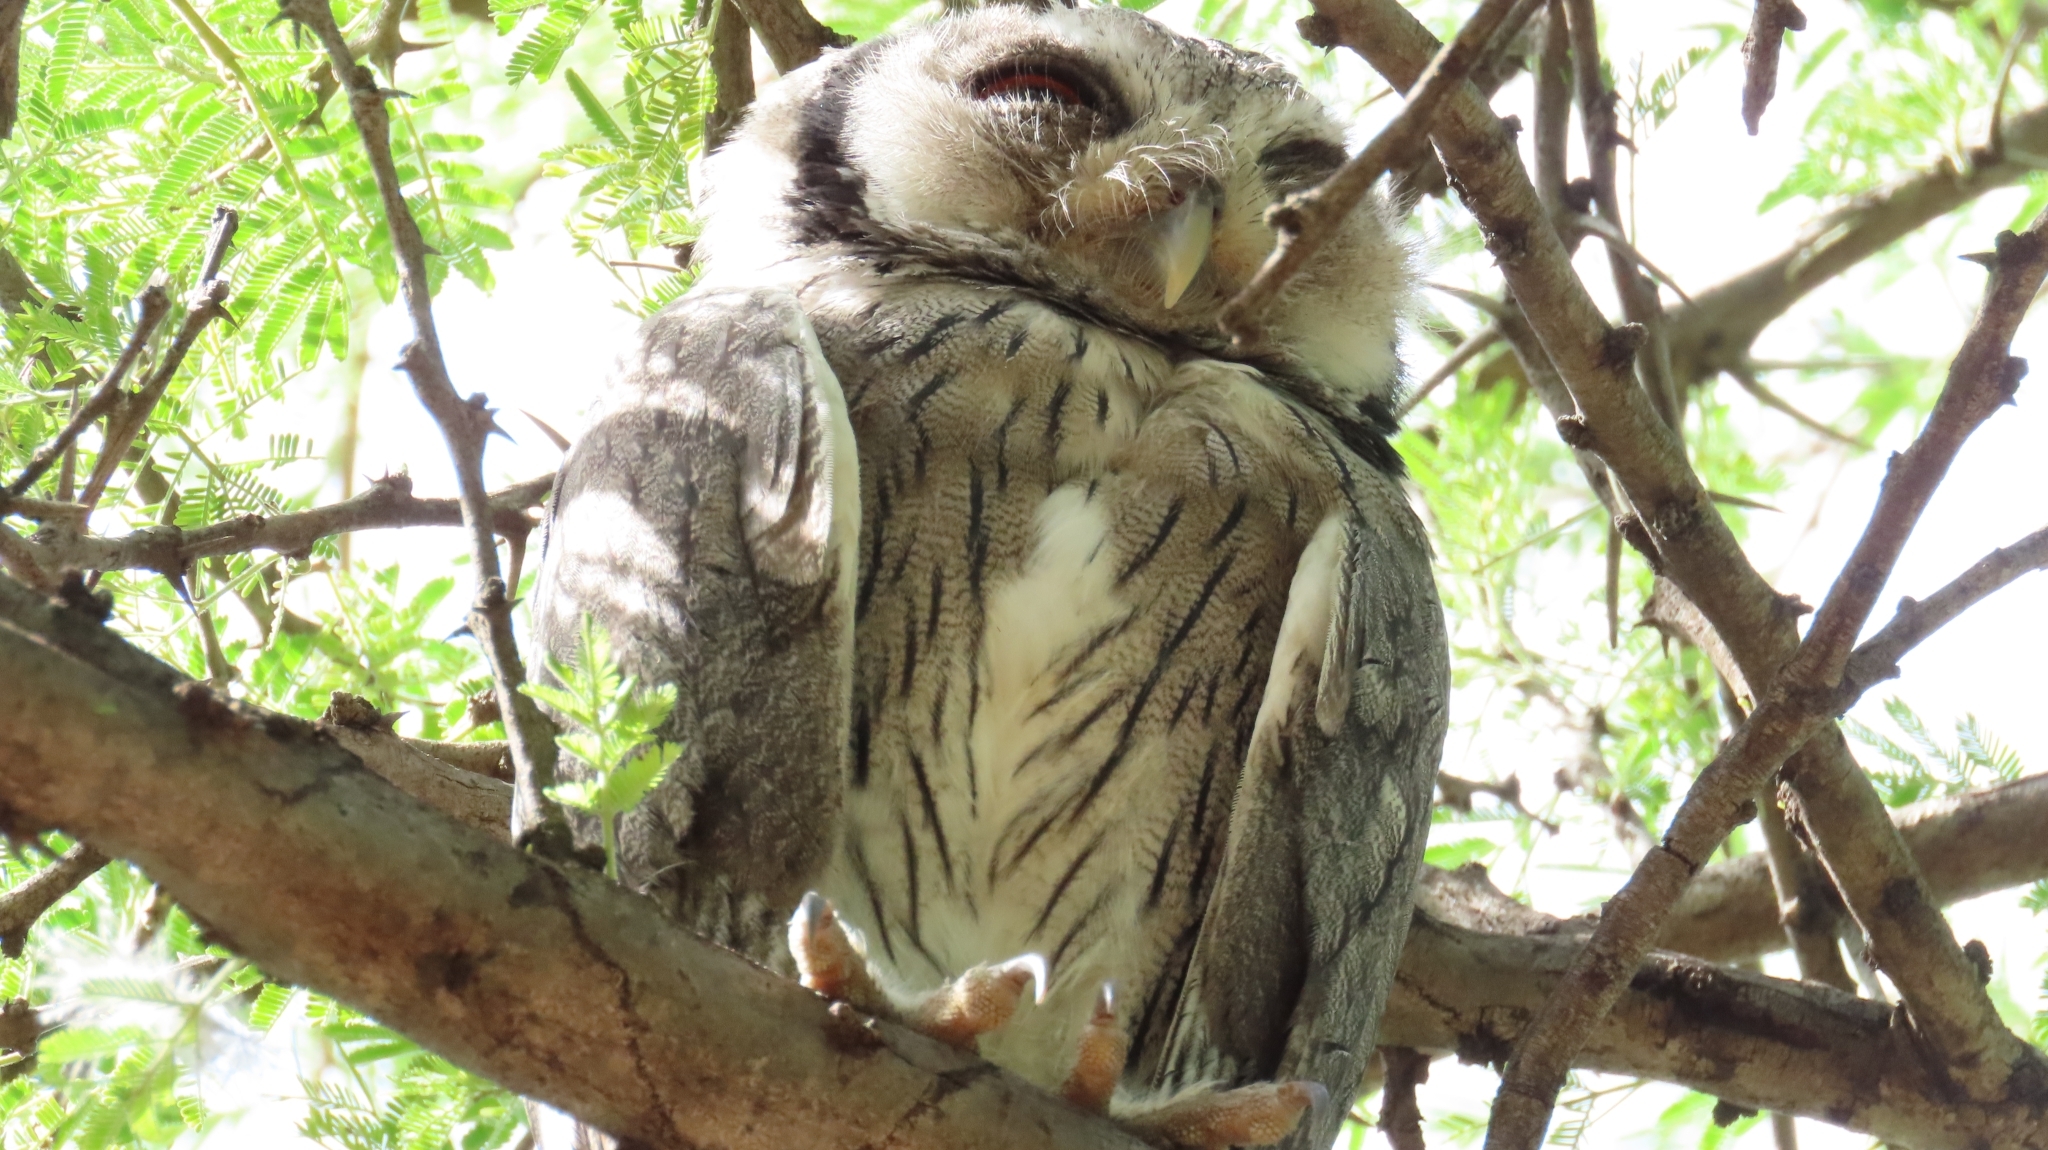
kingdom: Animalia
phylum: Chordata
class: Aves
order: Strigiformes
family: Strigidae
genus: Ptilopsis
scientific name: Ptilopsis granti
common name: Southern white-faced owl
